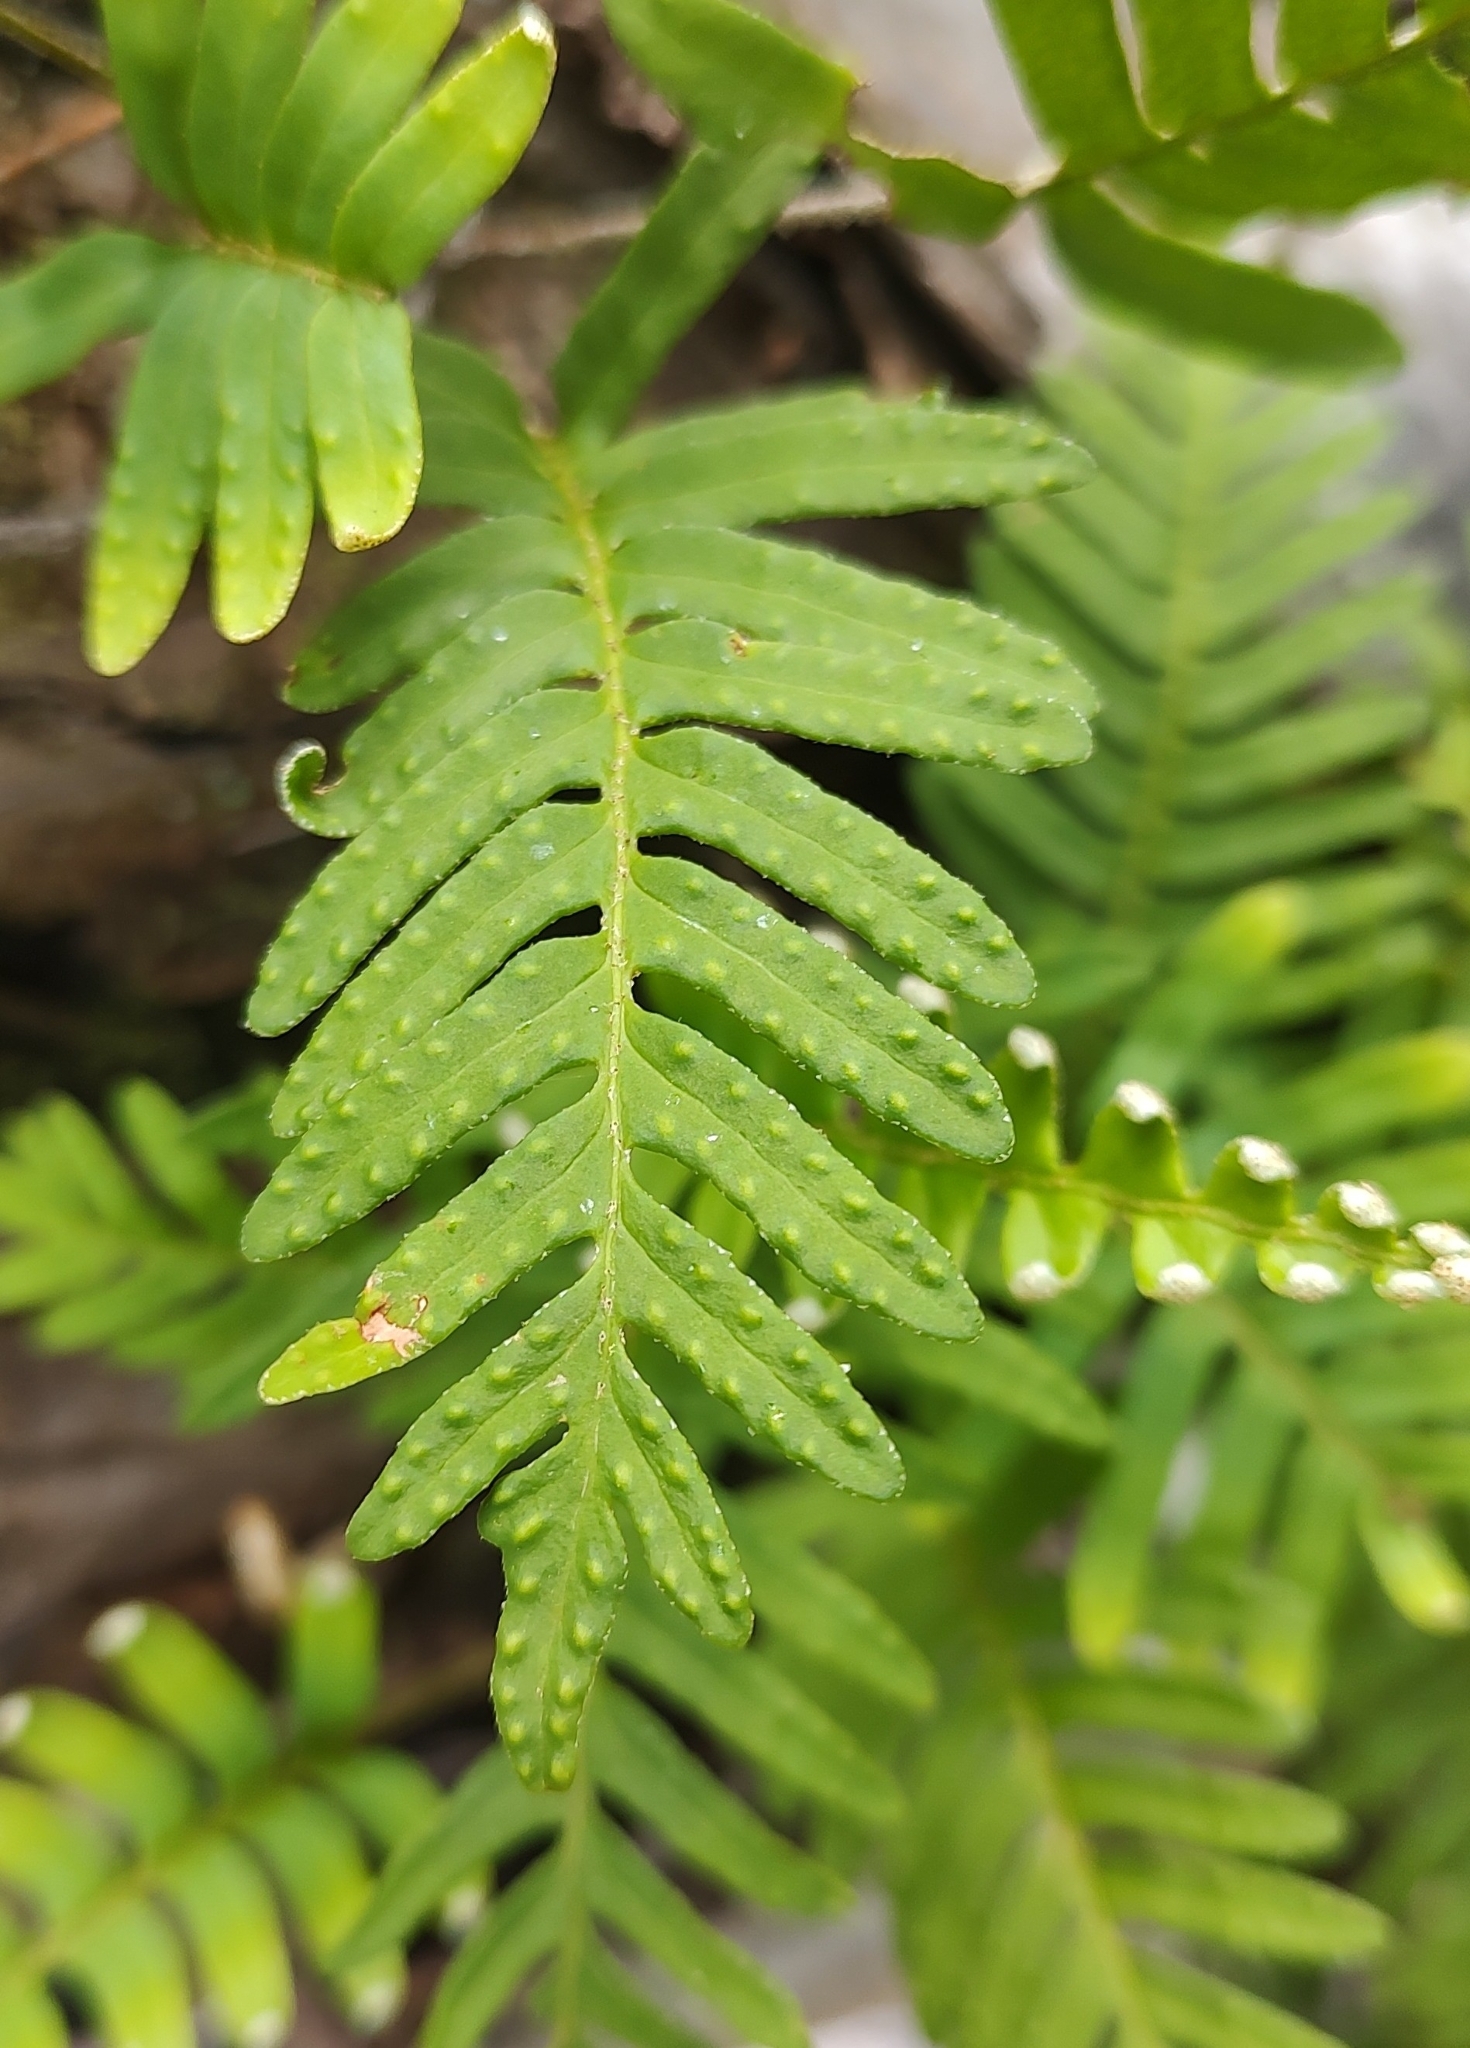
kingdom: Plantae
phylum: Tracheophyta
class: Polypodiopsida
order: Polypodiales
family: Polypodiaceae
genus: Pleopeltis
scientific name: Pleopeltis michauxiana
